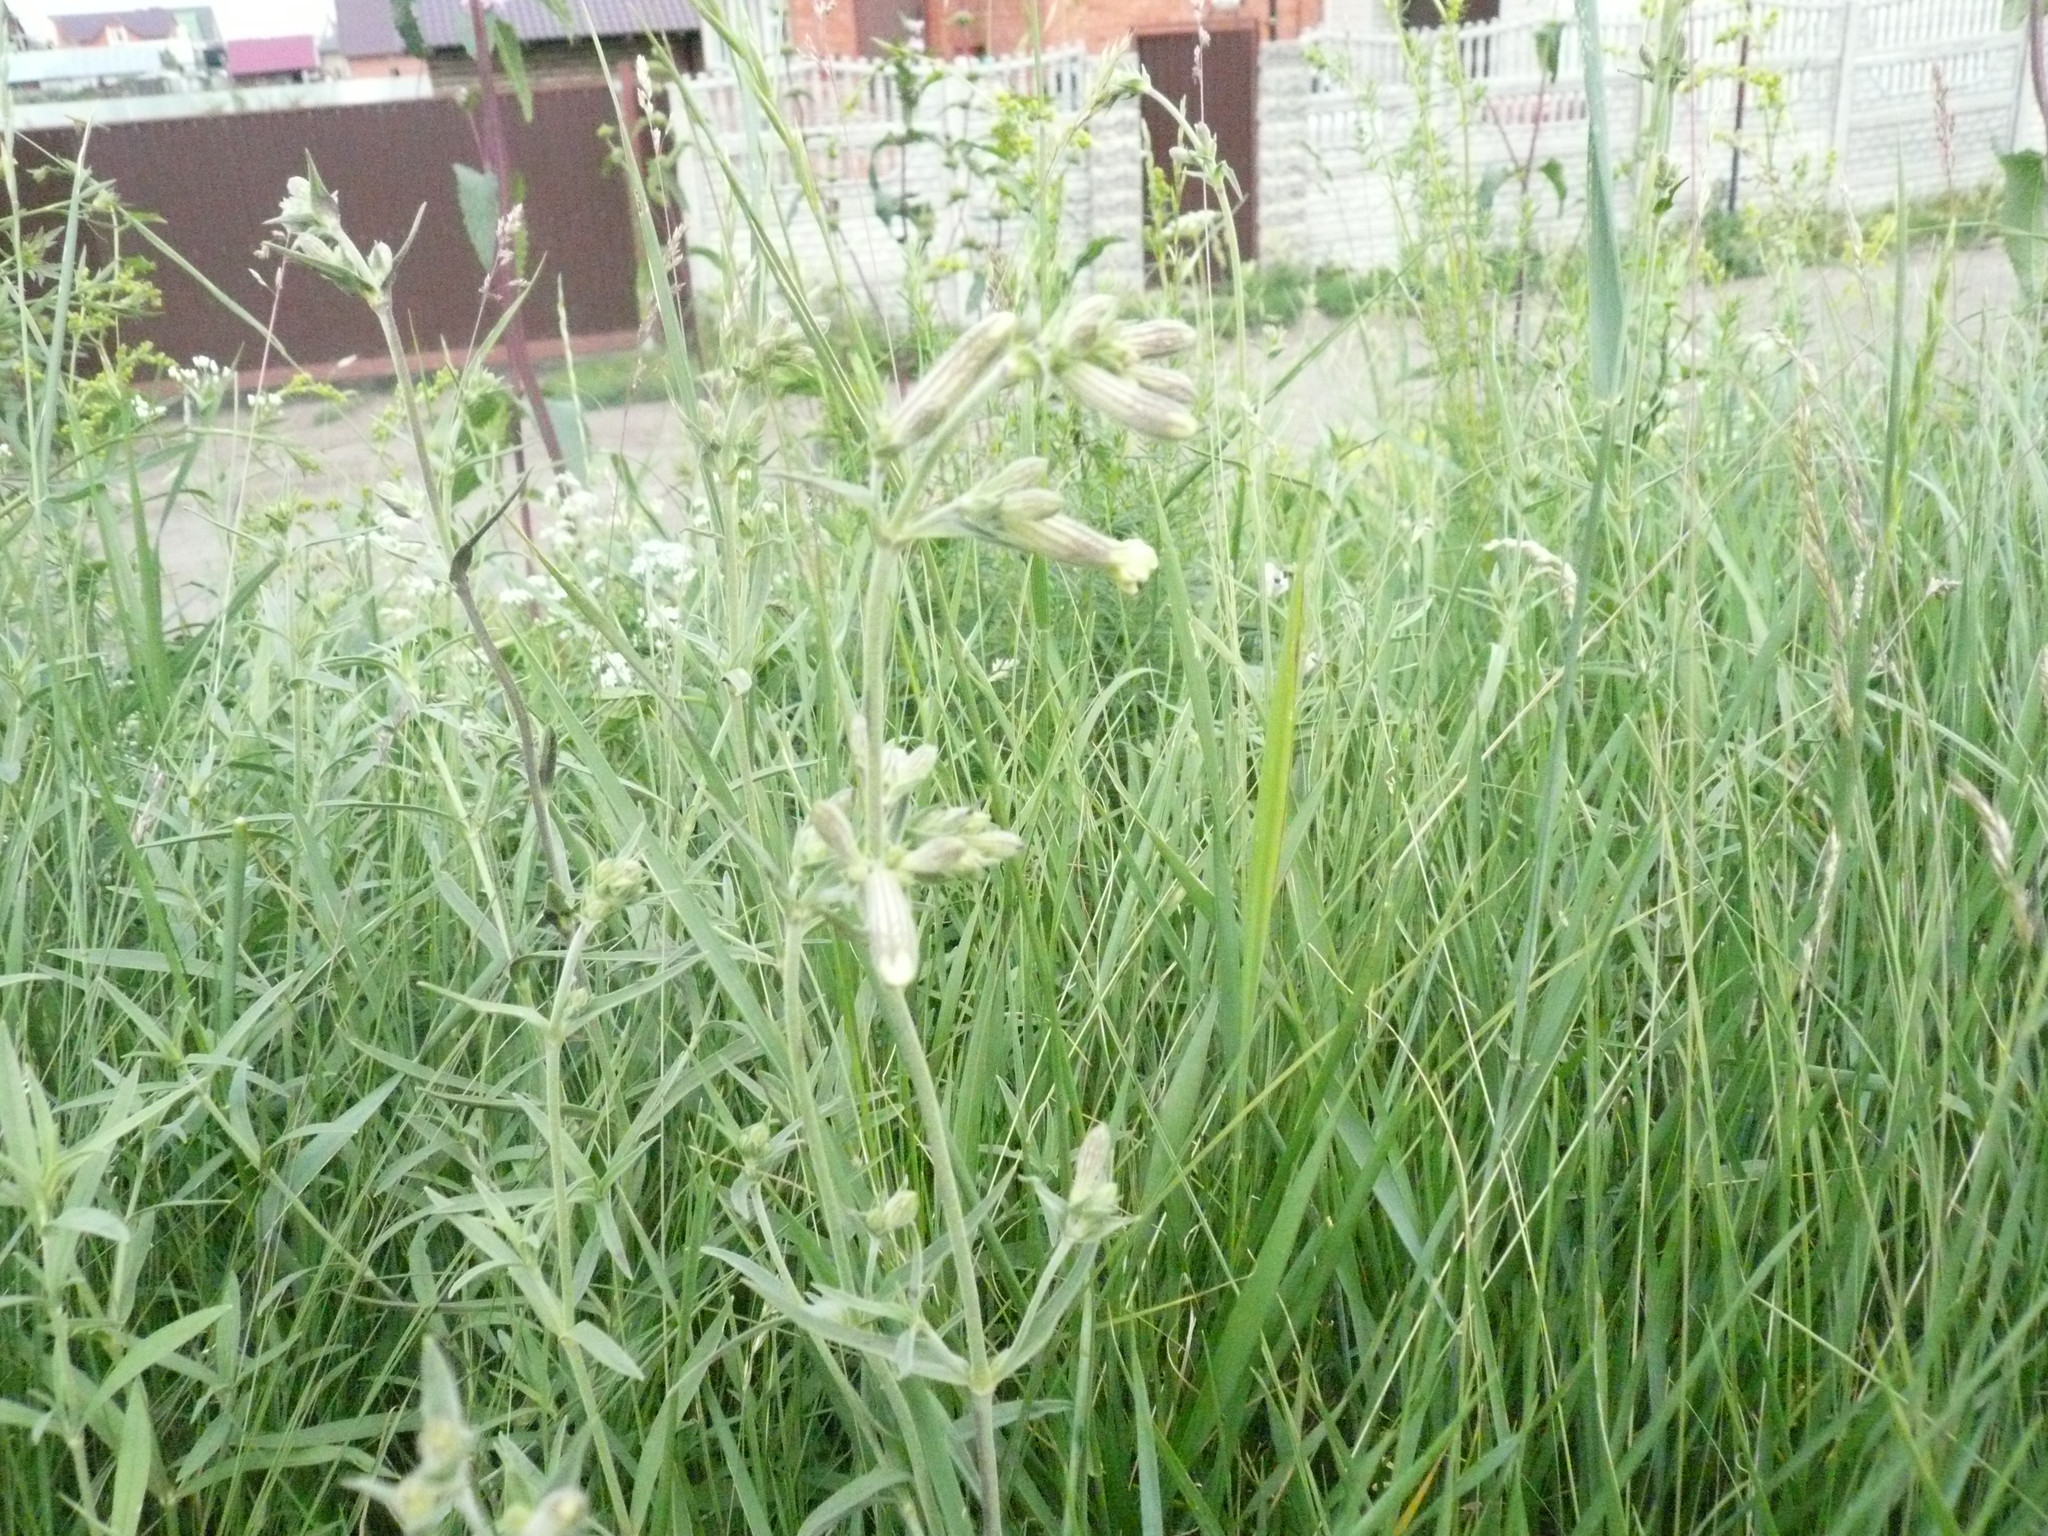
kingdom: Plantae
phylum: Tracheophyta
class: Magnoliopsida
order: Caryophyllales
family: Caryophyllaceae
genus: Silene
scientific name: Silene latifolia
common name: White campion
